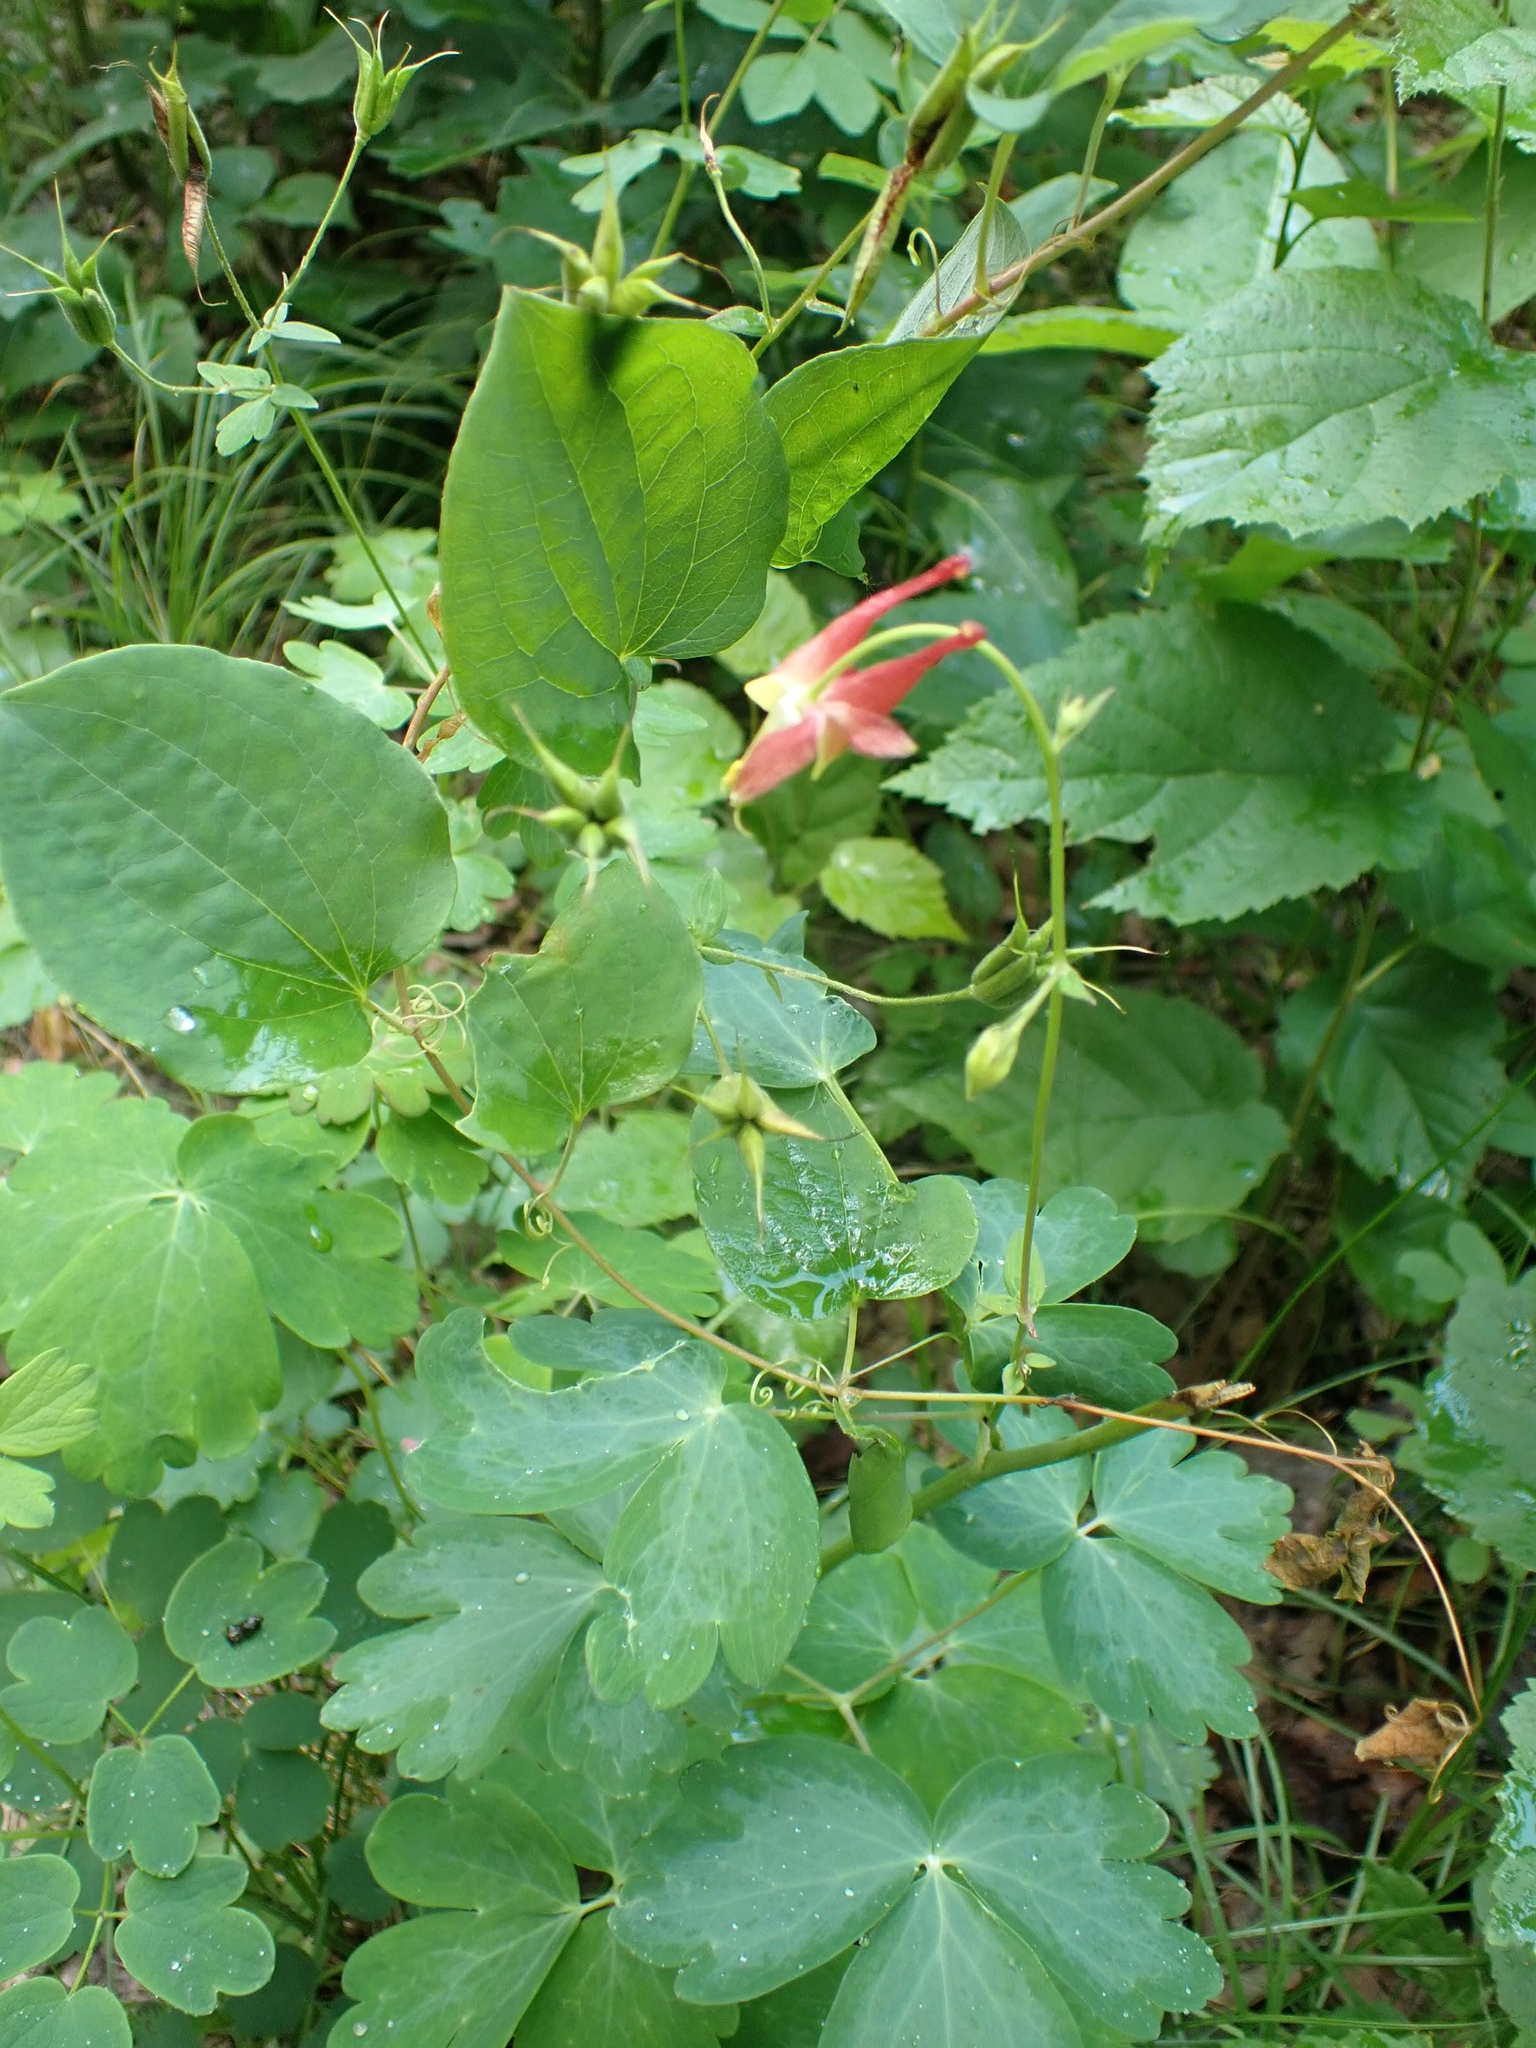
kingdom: Plantae
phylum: Tracheophyta
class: Magnoliopsida
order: Ranunculales
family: Ranunculaceae
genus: Aquilegia
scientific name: Aquilegia canadensis
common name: American columbine
